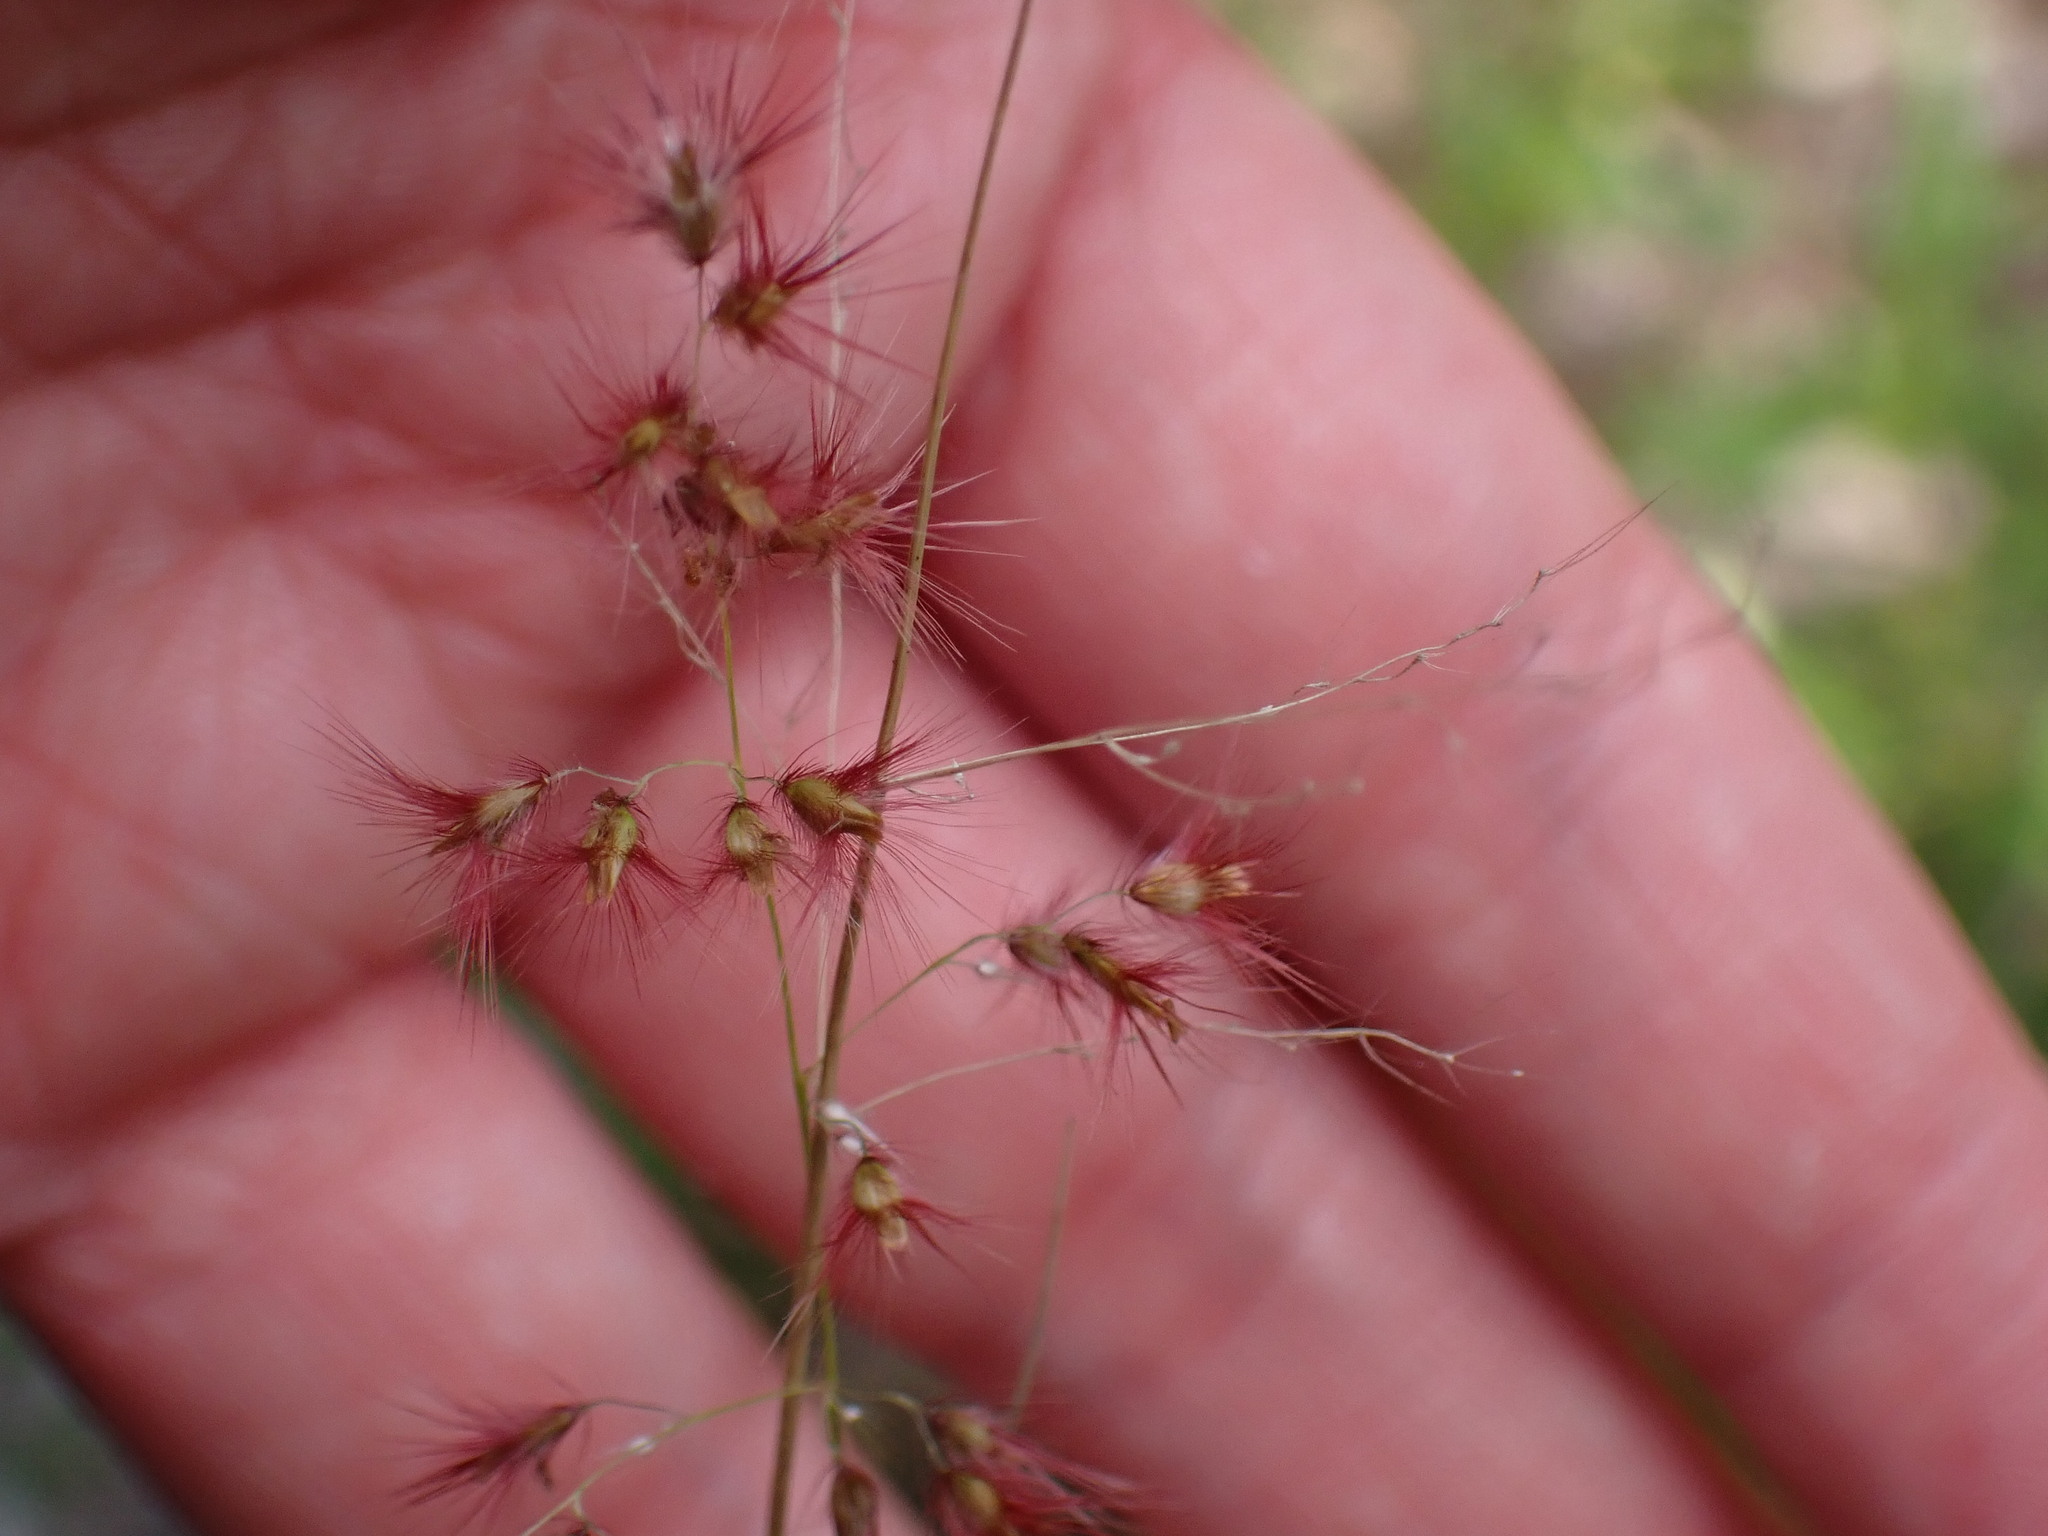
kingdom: Plantae
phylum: Tracheophyta
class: Liliopsida
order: Poales
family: Poaceae
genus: Melinis
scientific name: Melinis repens
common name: Rose natal grass
